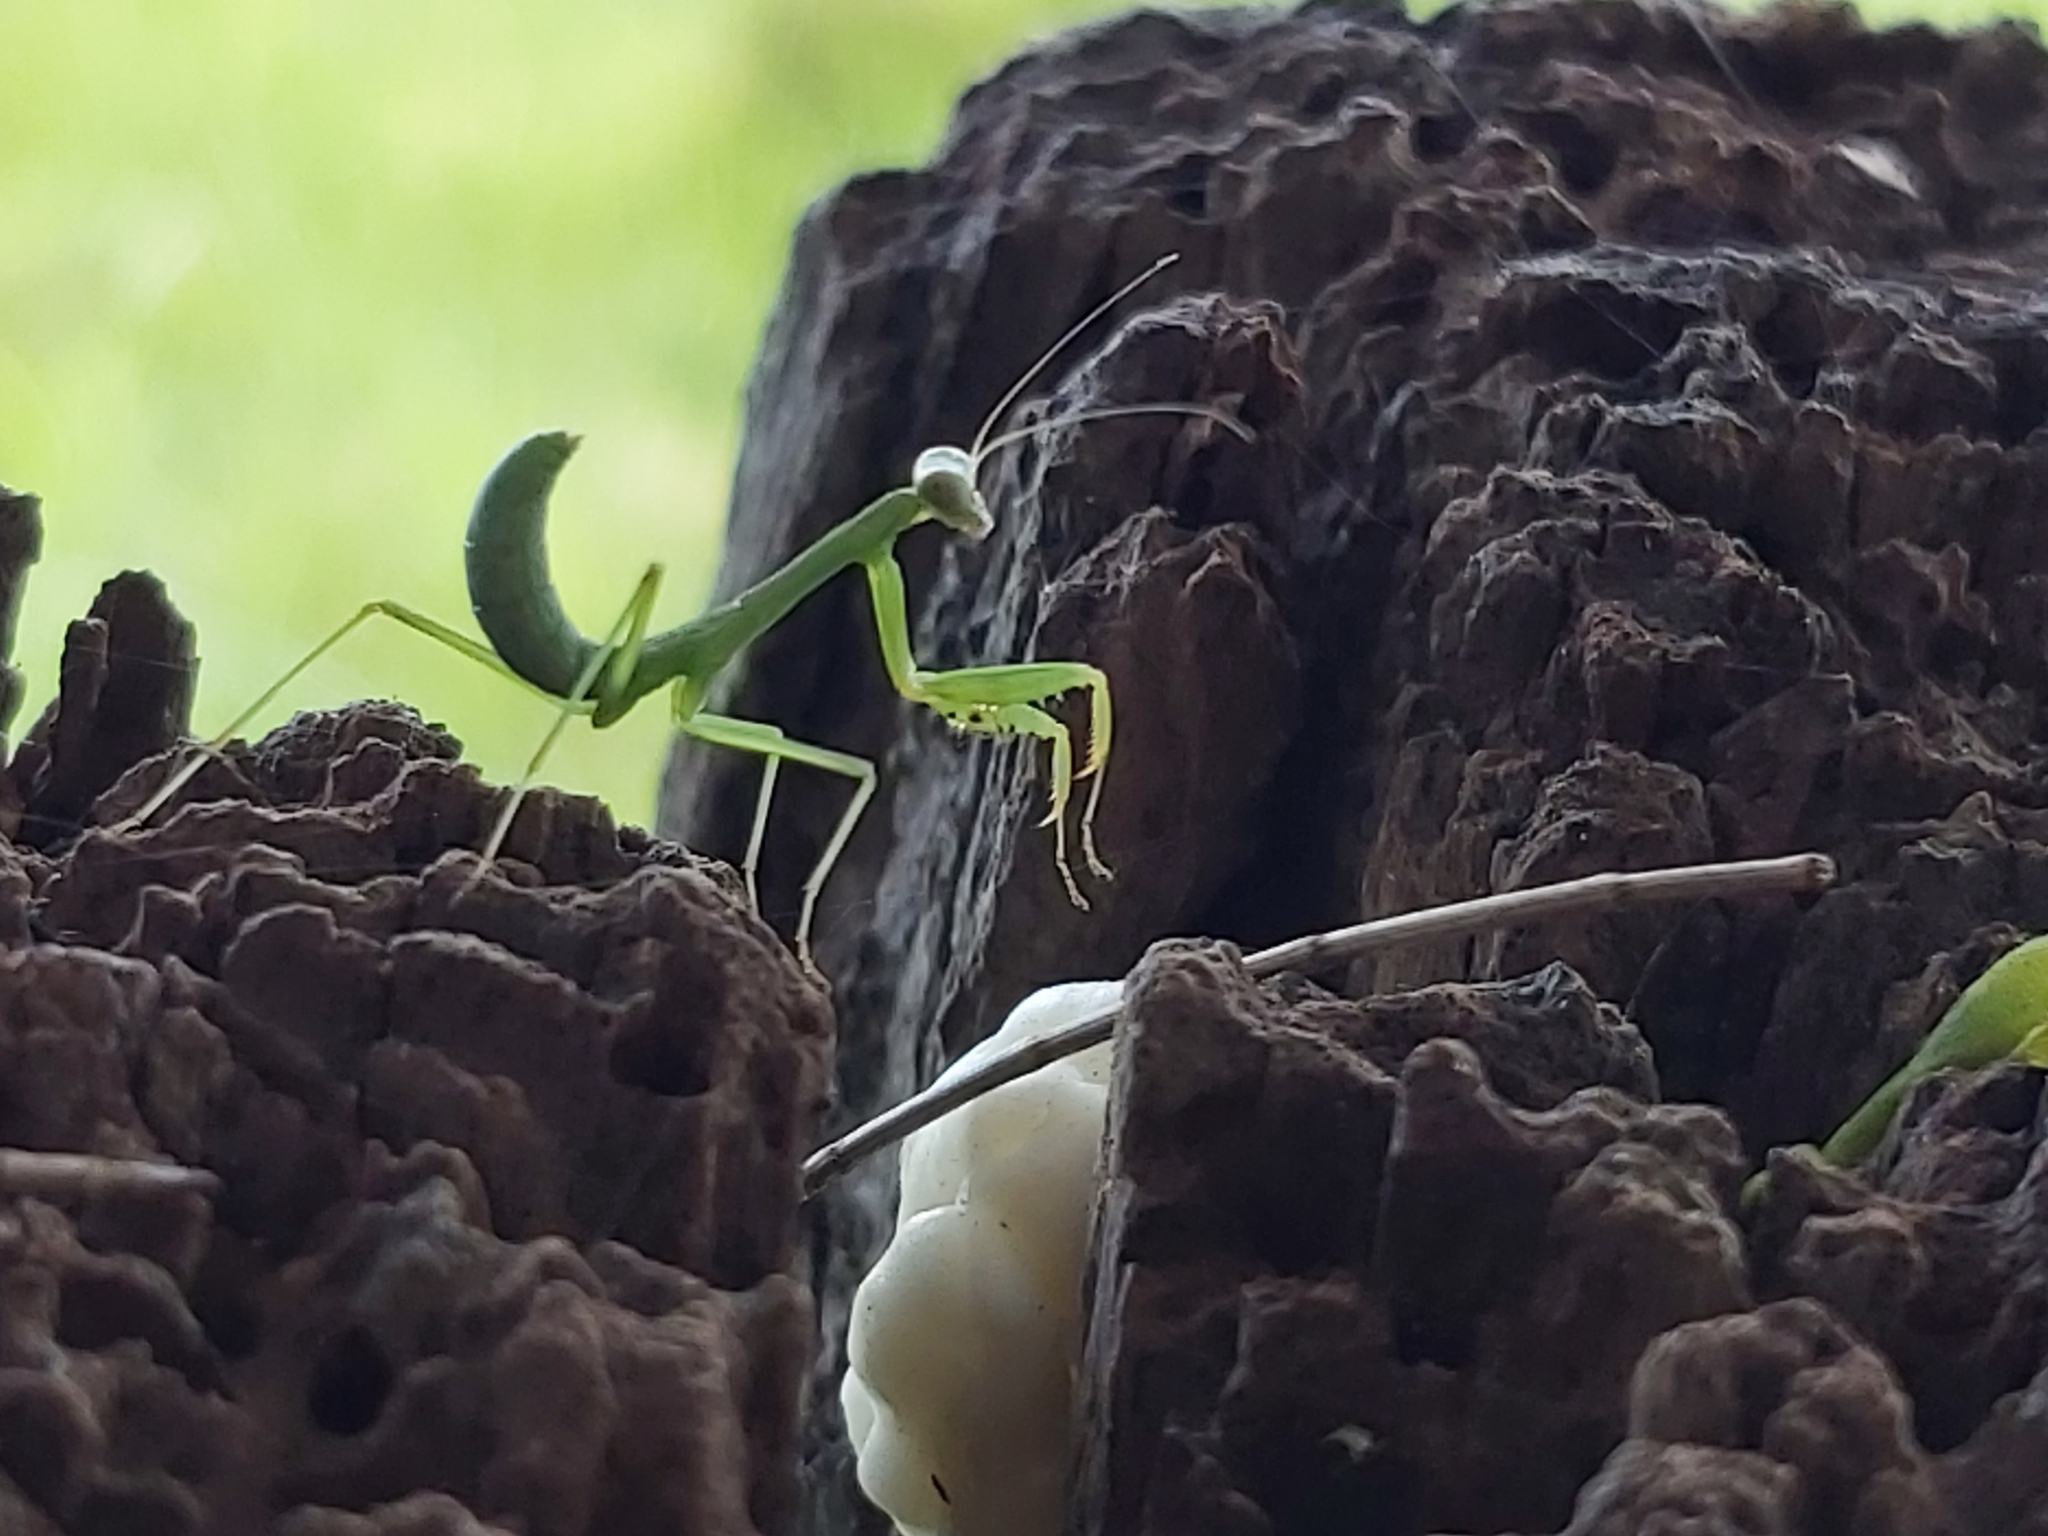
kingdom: Animalia
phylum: Arthropoda
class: Insecta
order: Mantodea
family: Mantidae
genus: Hierodula
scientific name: Hierodula majuscula
